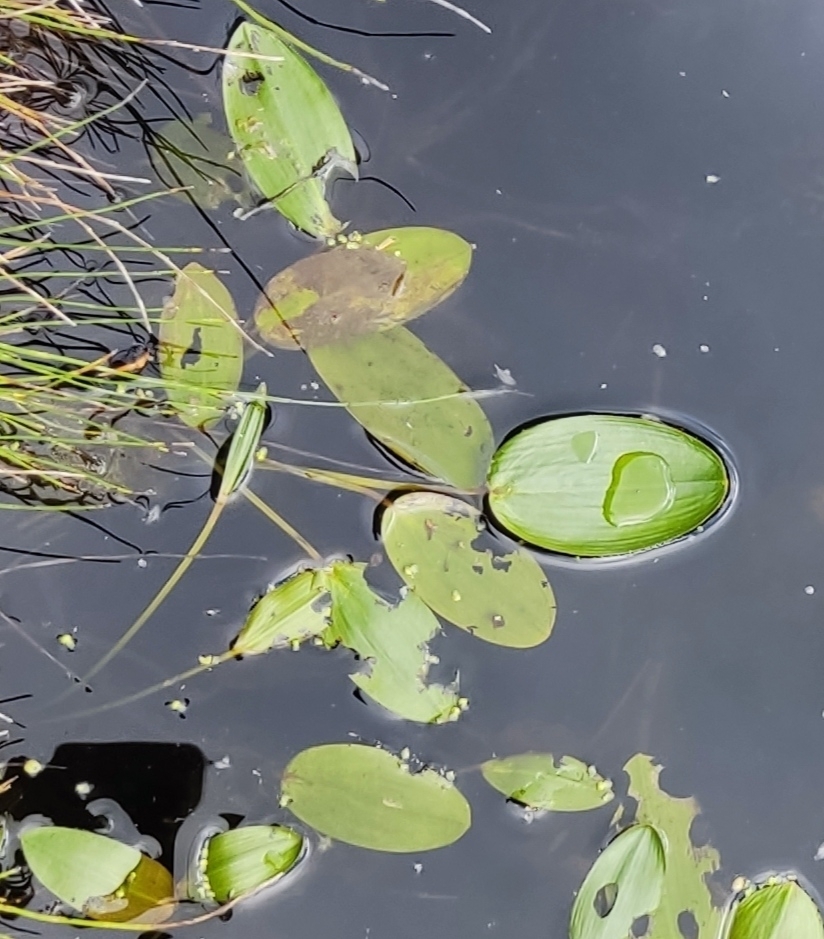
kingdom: Plantae
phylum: Tracheophyta
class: Liliopsida
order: Alismatales
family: Potamogetonaceae
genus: Potamogeton
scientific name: Potamogeton natans
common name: Broad-leaved pondweed
